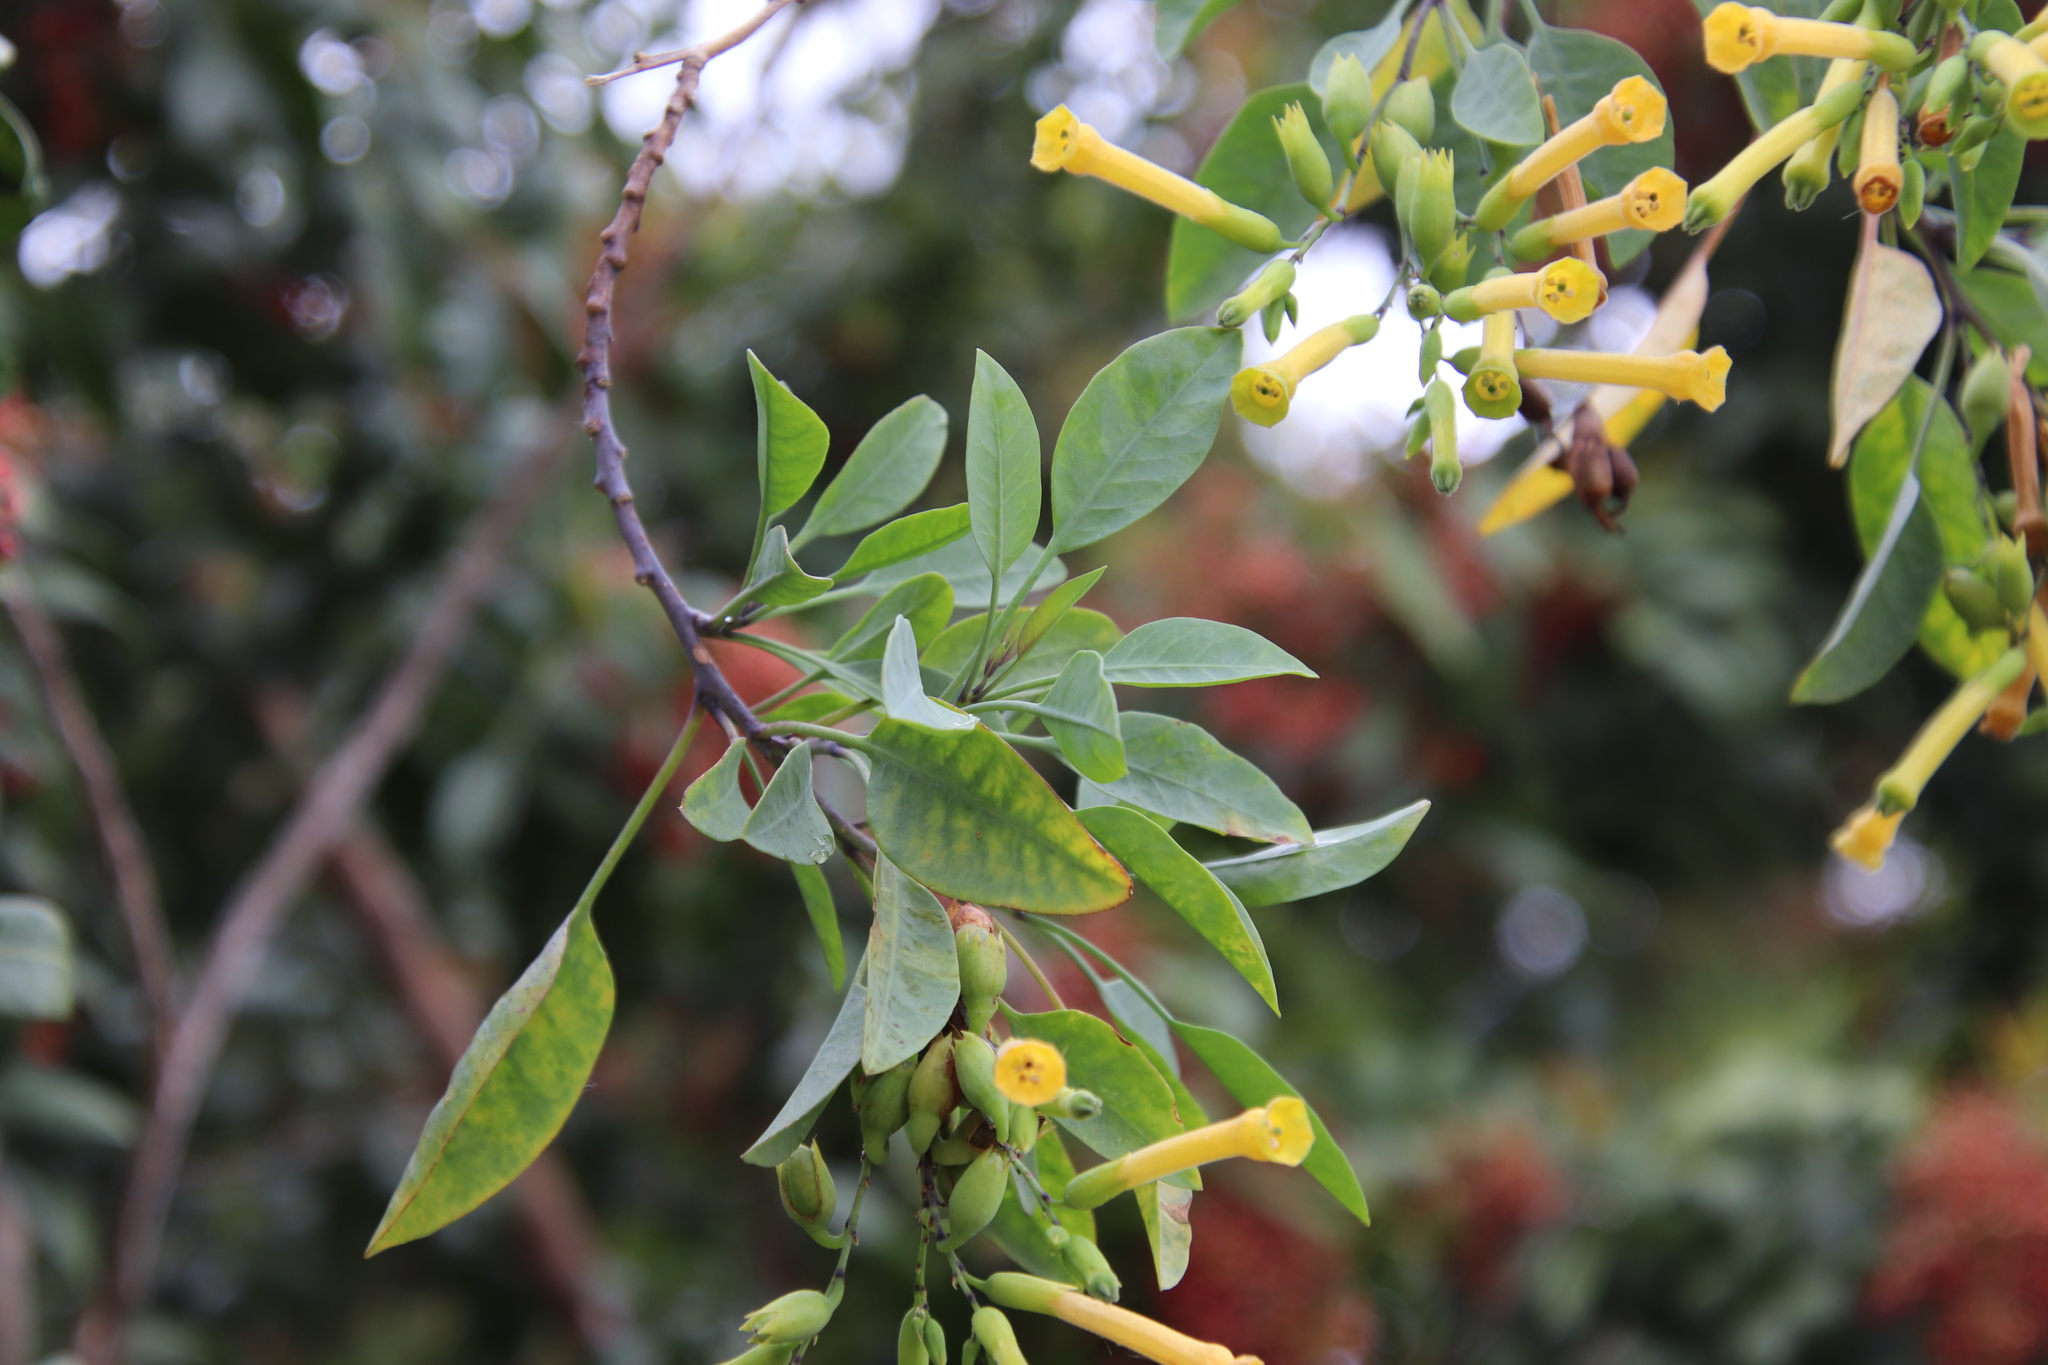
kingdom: Plantae
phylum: Tracheophyta
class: Magnoliopsida
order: Solanales
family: Solanaceae
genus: Nicotiana
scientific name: Nicotiana glauca
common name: Tree tobacco
